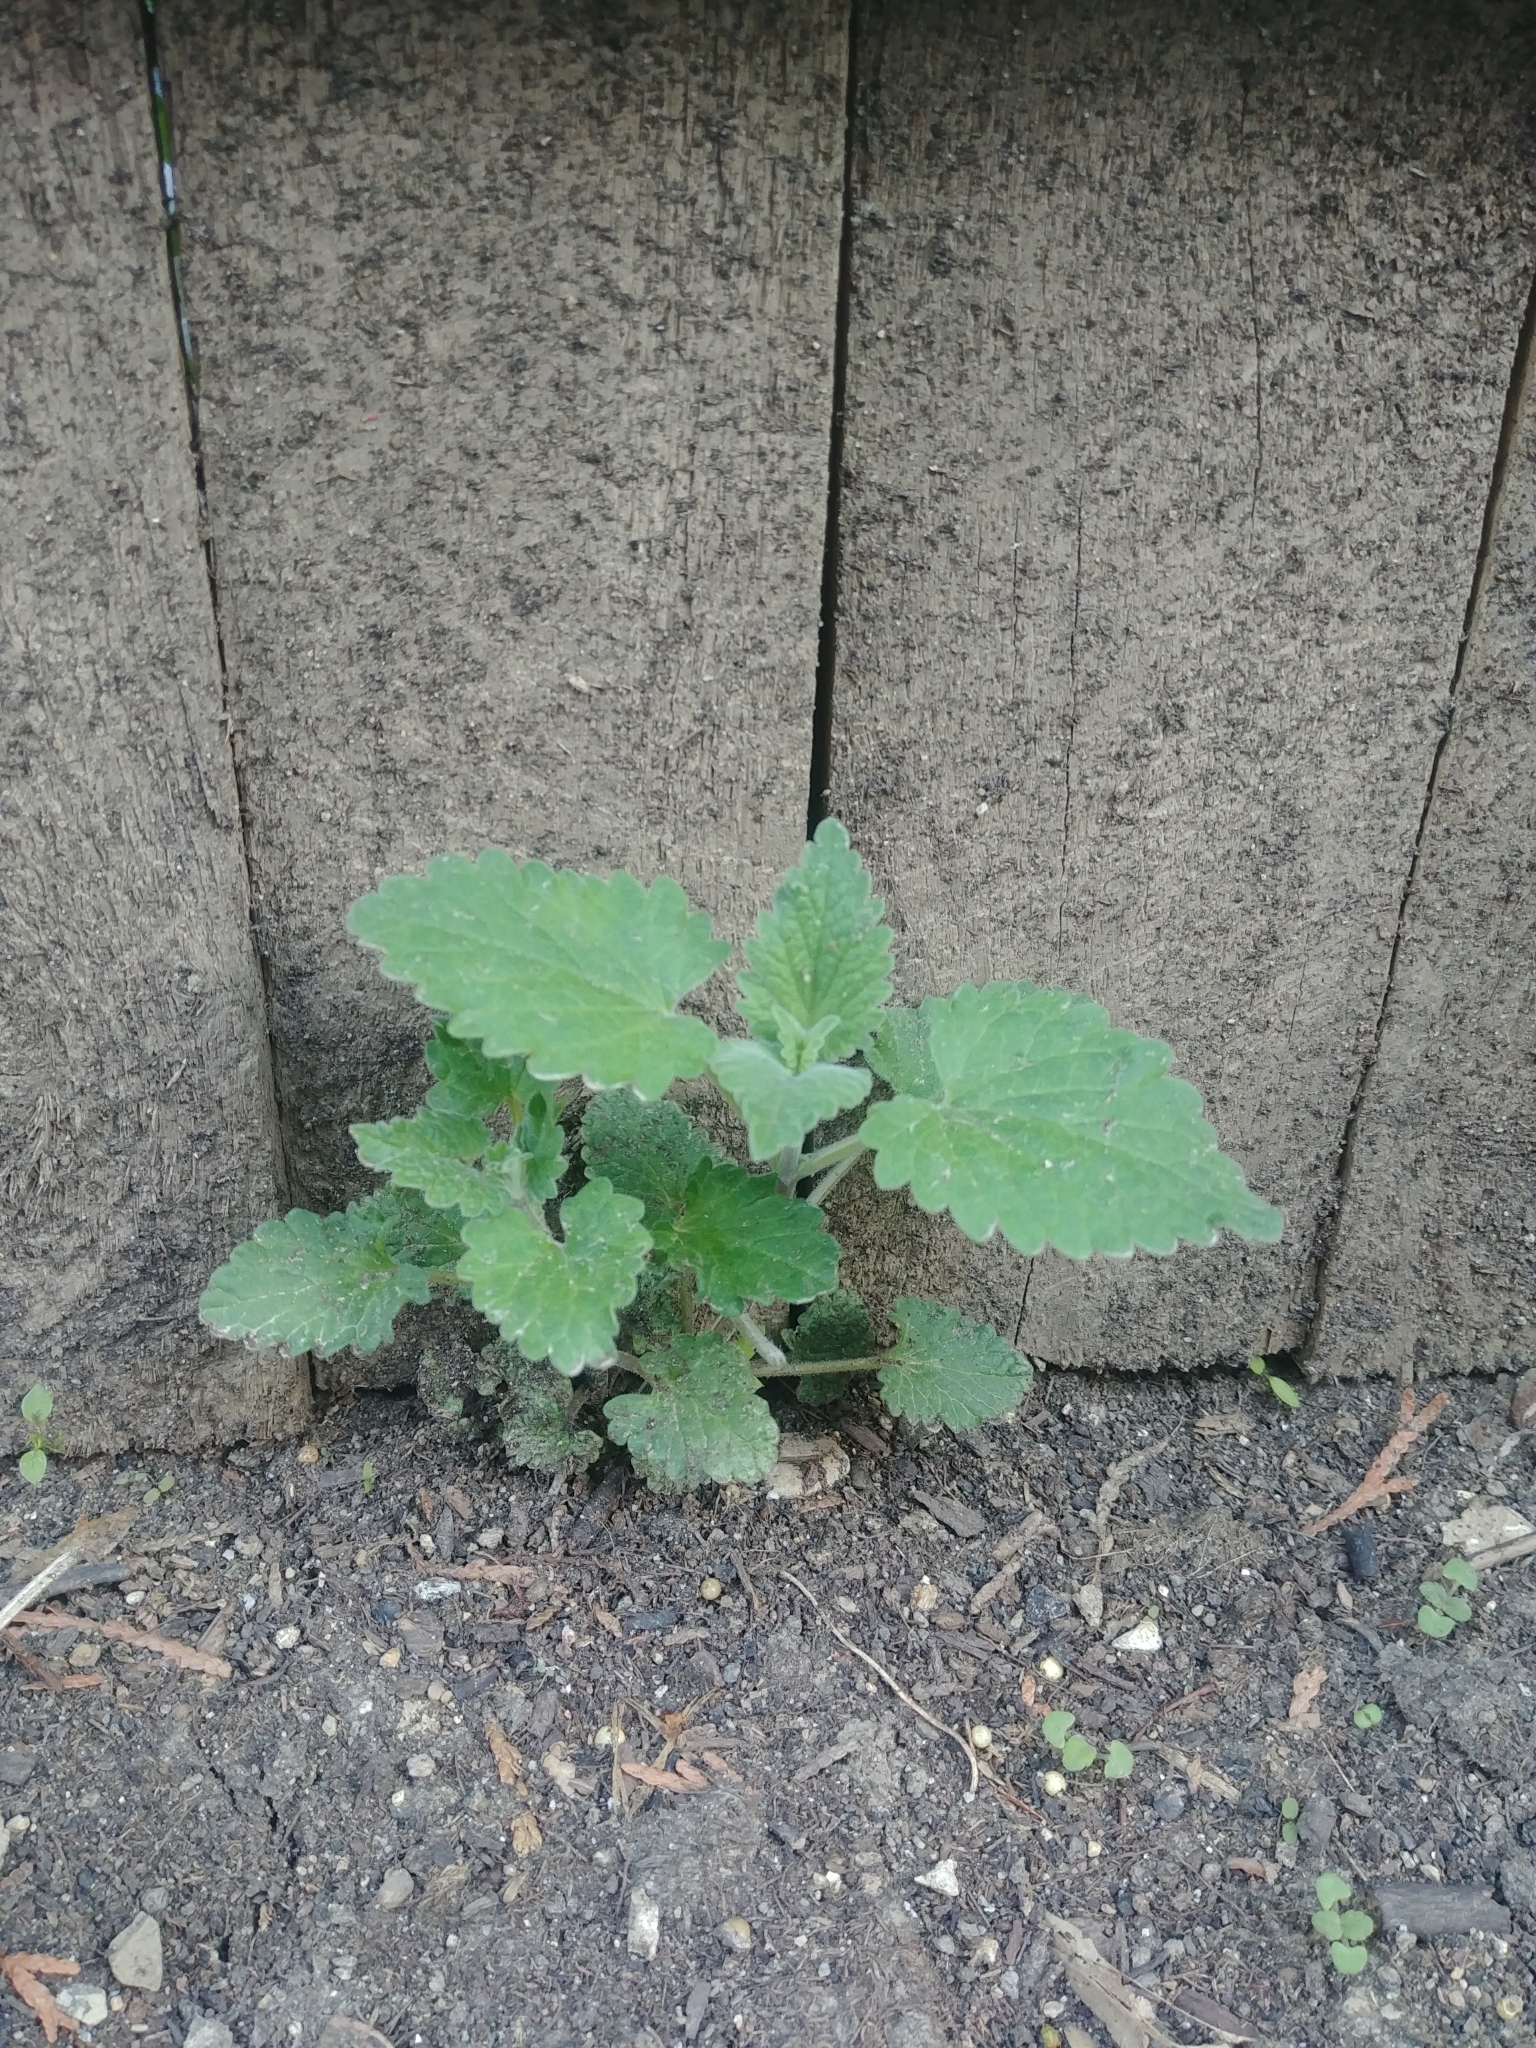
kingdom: Plantae
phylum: Tracheophyta
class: Magnoliopsida
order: Lamiales
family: Lamiaceae
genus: Nepeta
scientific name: Nepeta cataria
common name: Catnip
